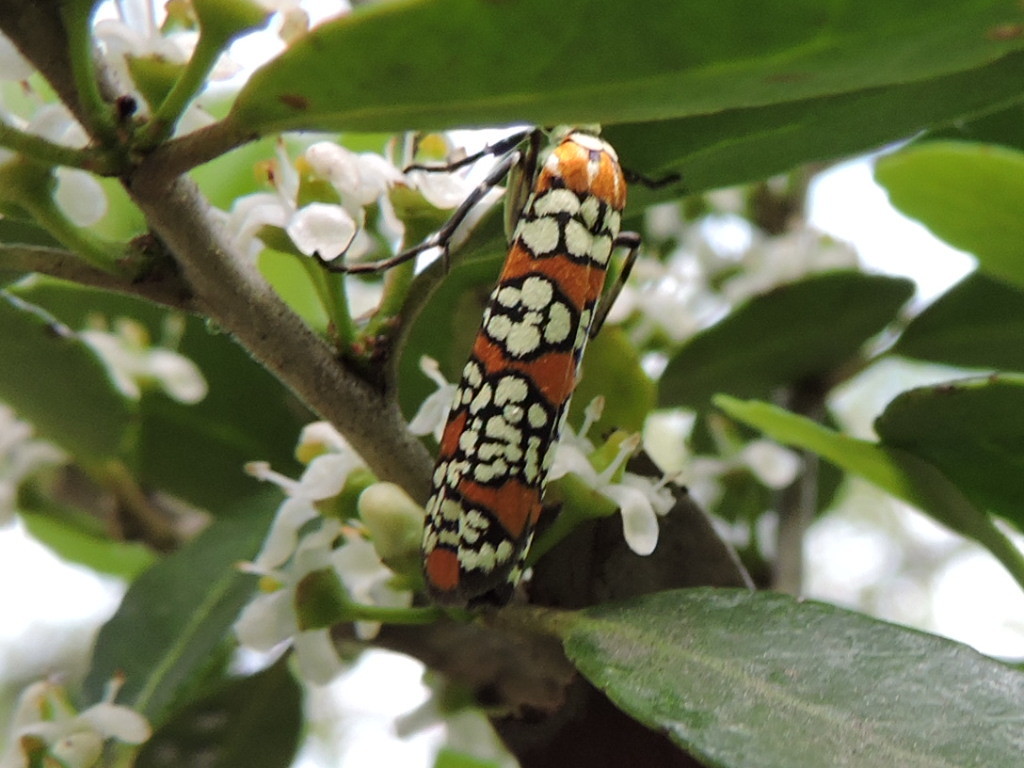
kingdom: Animalia
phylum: Arthropoda
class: Insecta
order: Lepidoptera
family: Attevidae
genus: Atteva
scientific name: Atteva punctella
